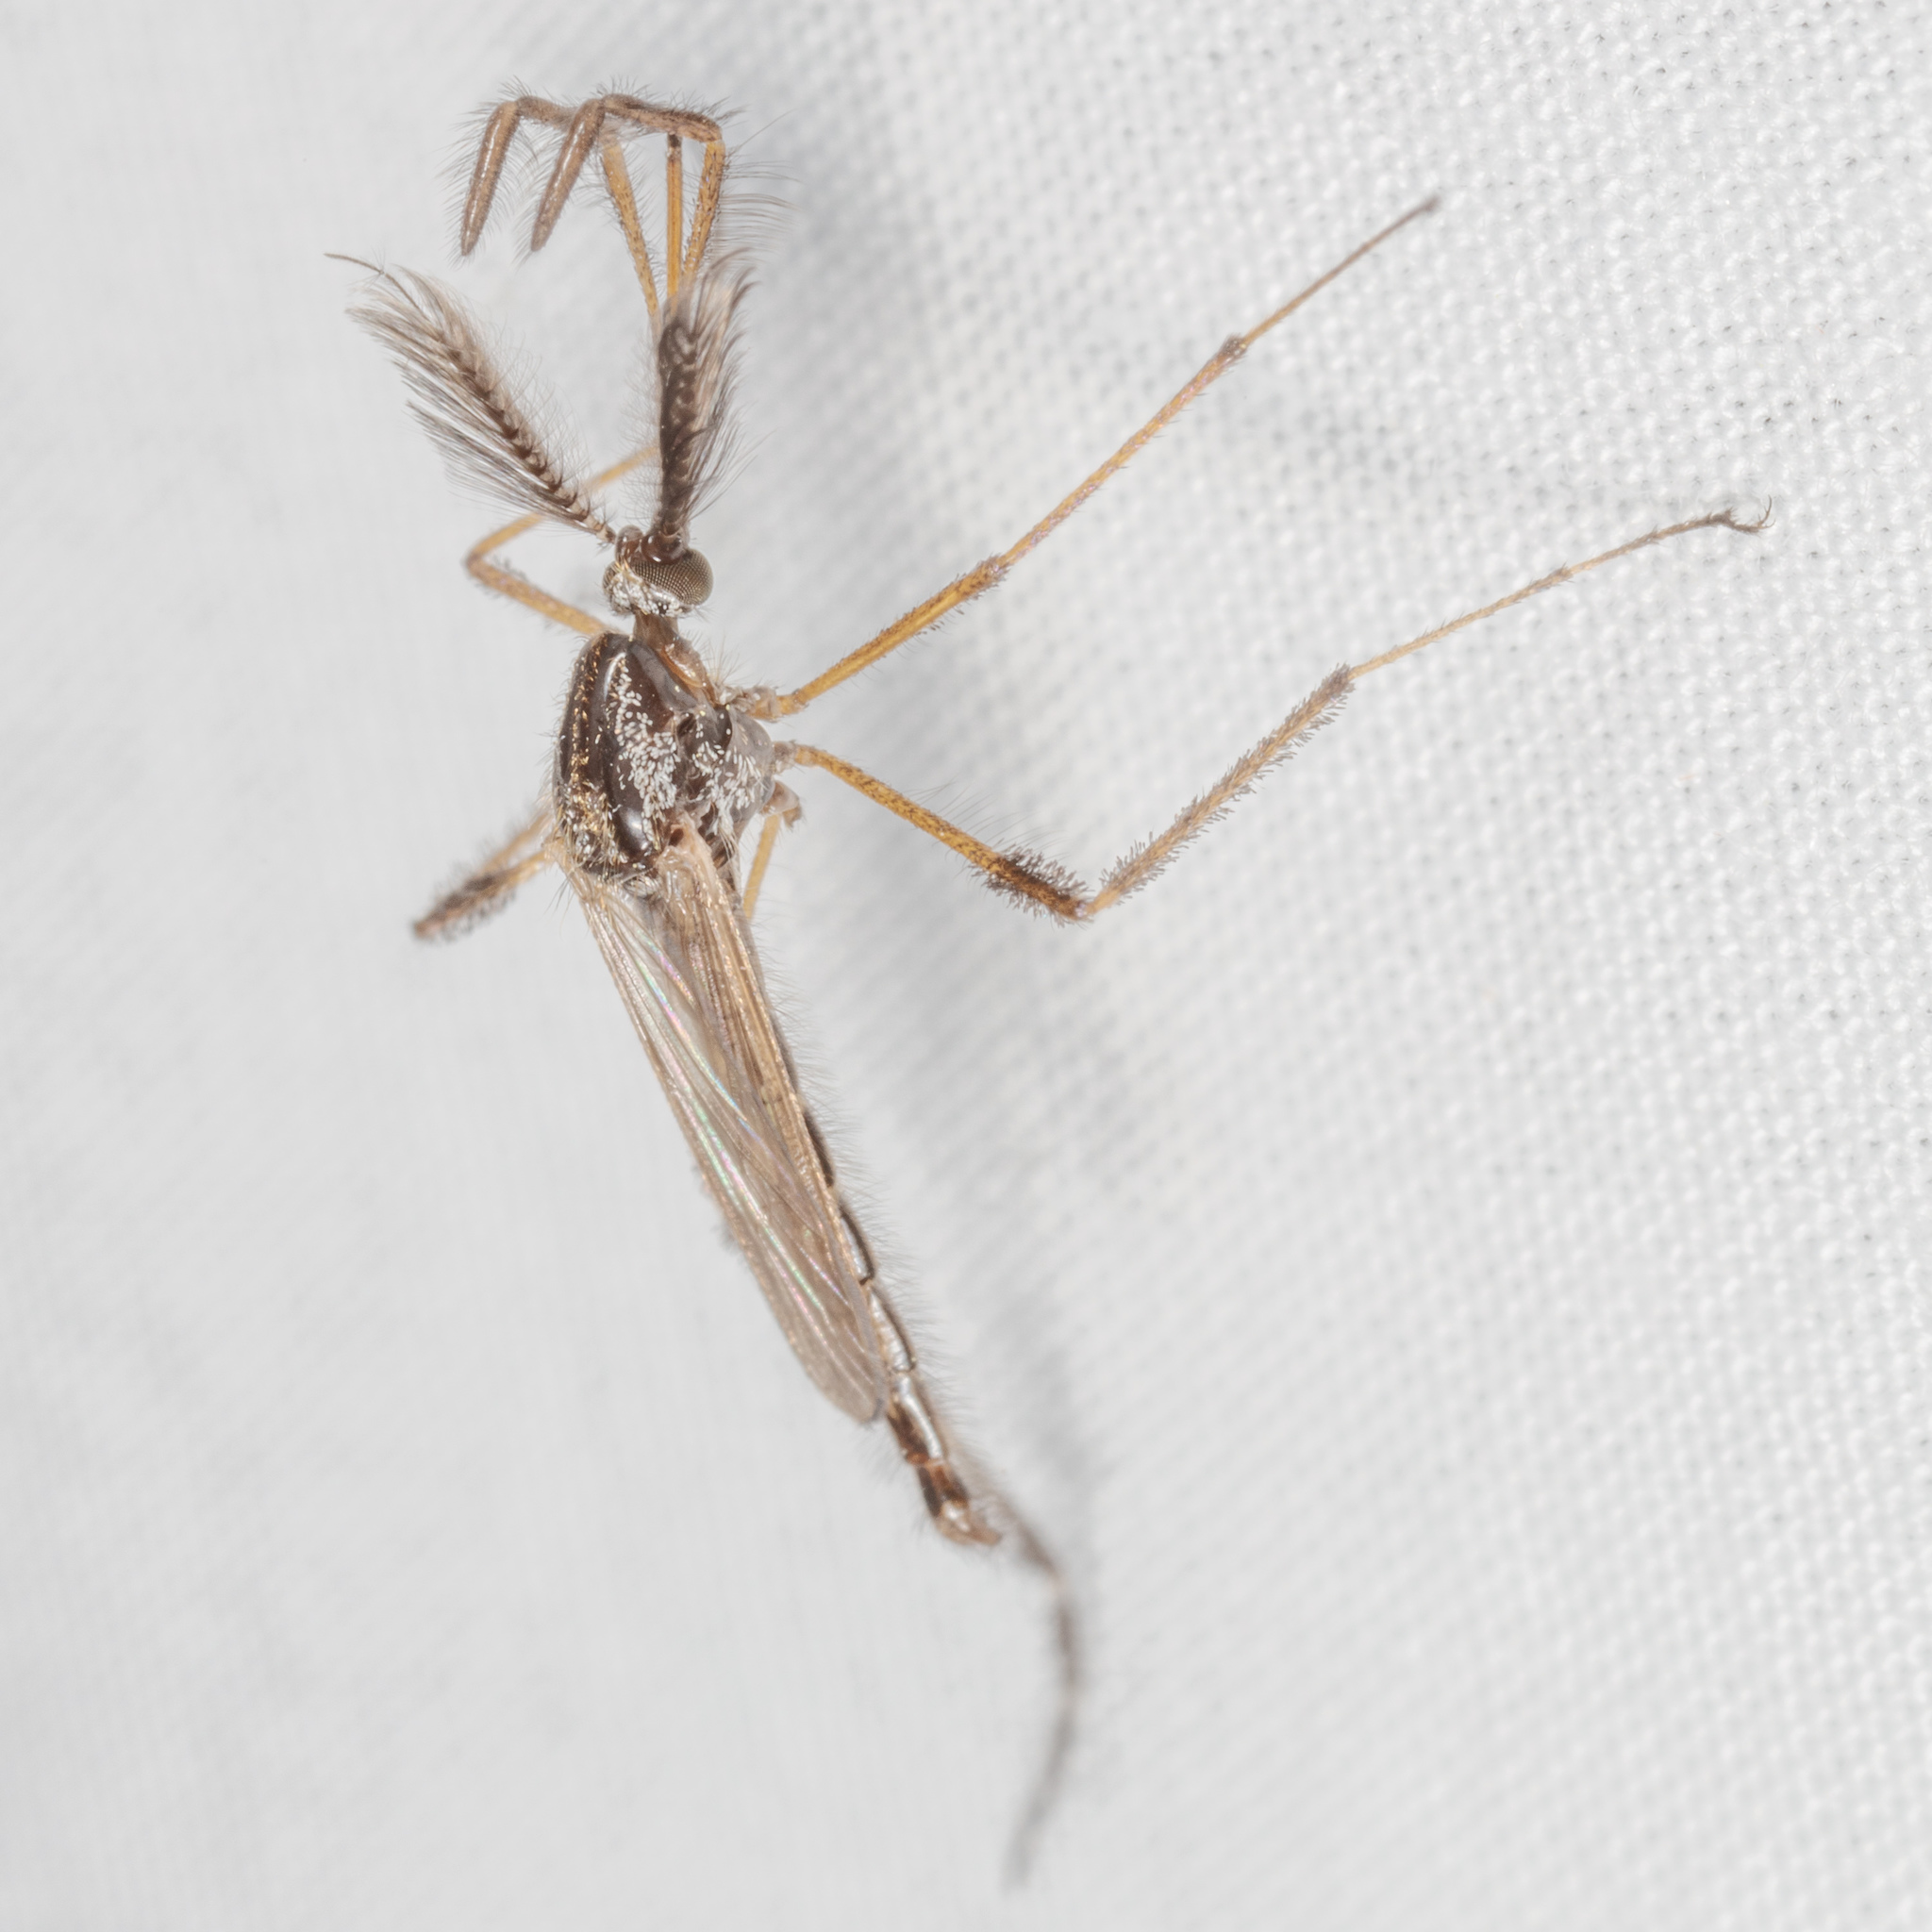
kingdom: Animalia
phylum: Arthropoda
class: Insecta
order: Diptera
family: Culicidae
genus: Psorophora
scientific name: Psorophora ciliata
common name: Gallinipper
